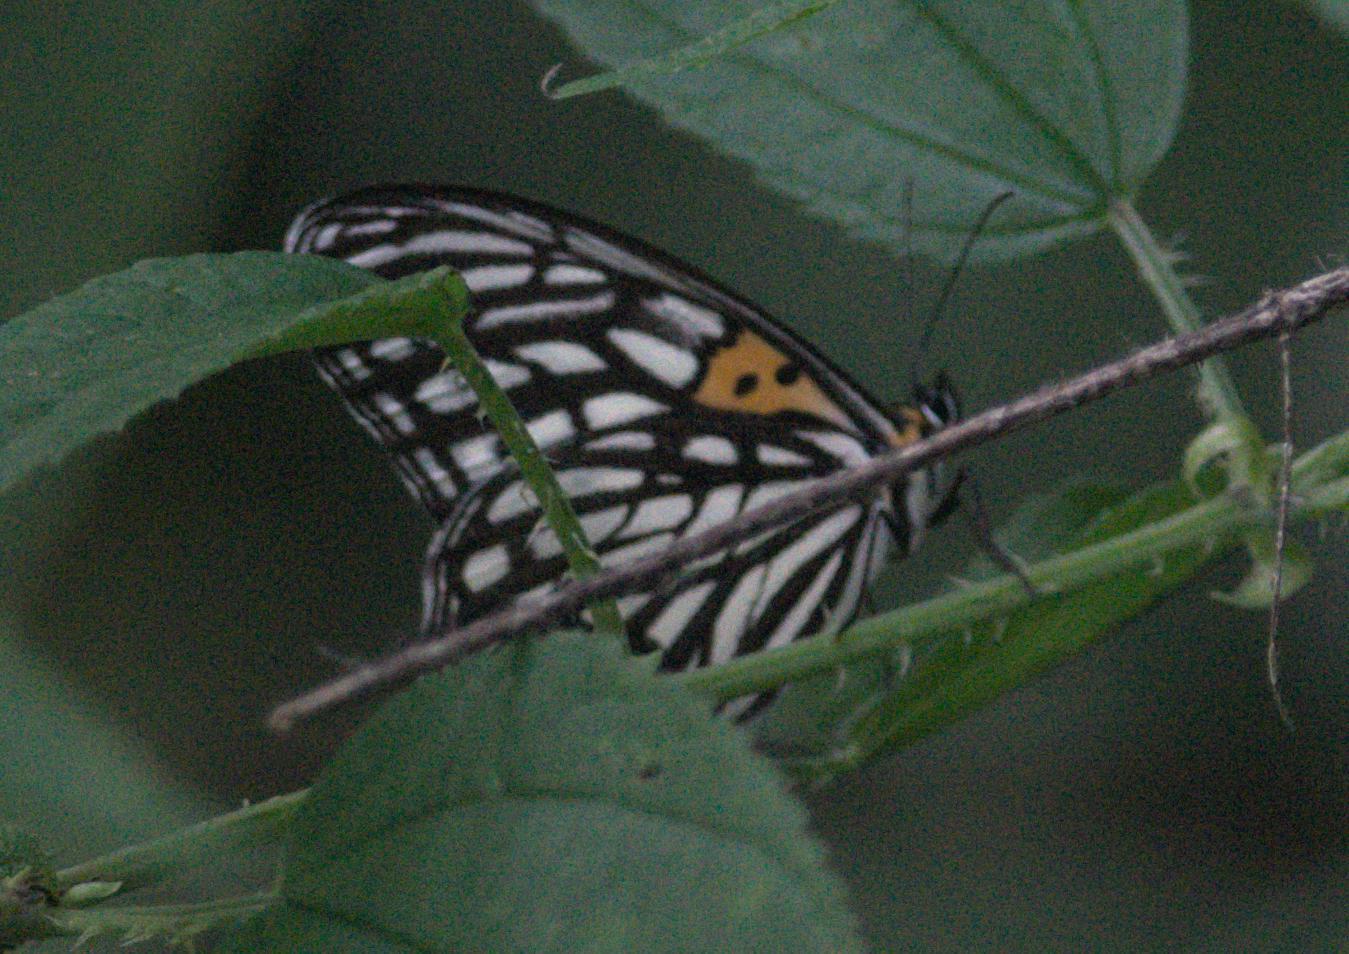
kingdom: Animalia
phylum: Arthropoda
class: Insecta
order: Lepidoptera
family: Nymphalidae
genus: Orinoma
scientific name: Orinoma damaris
